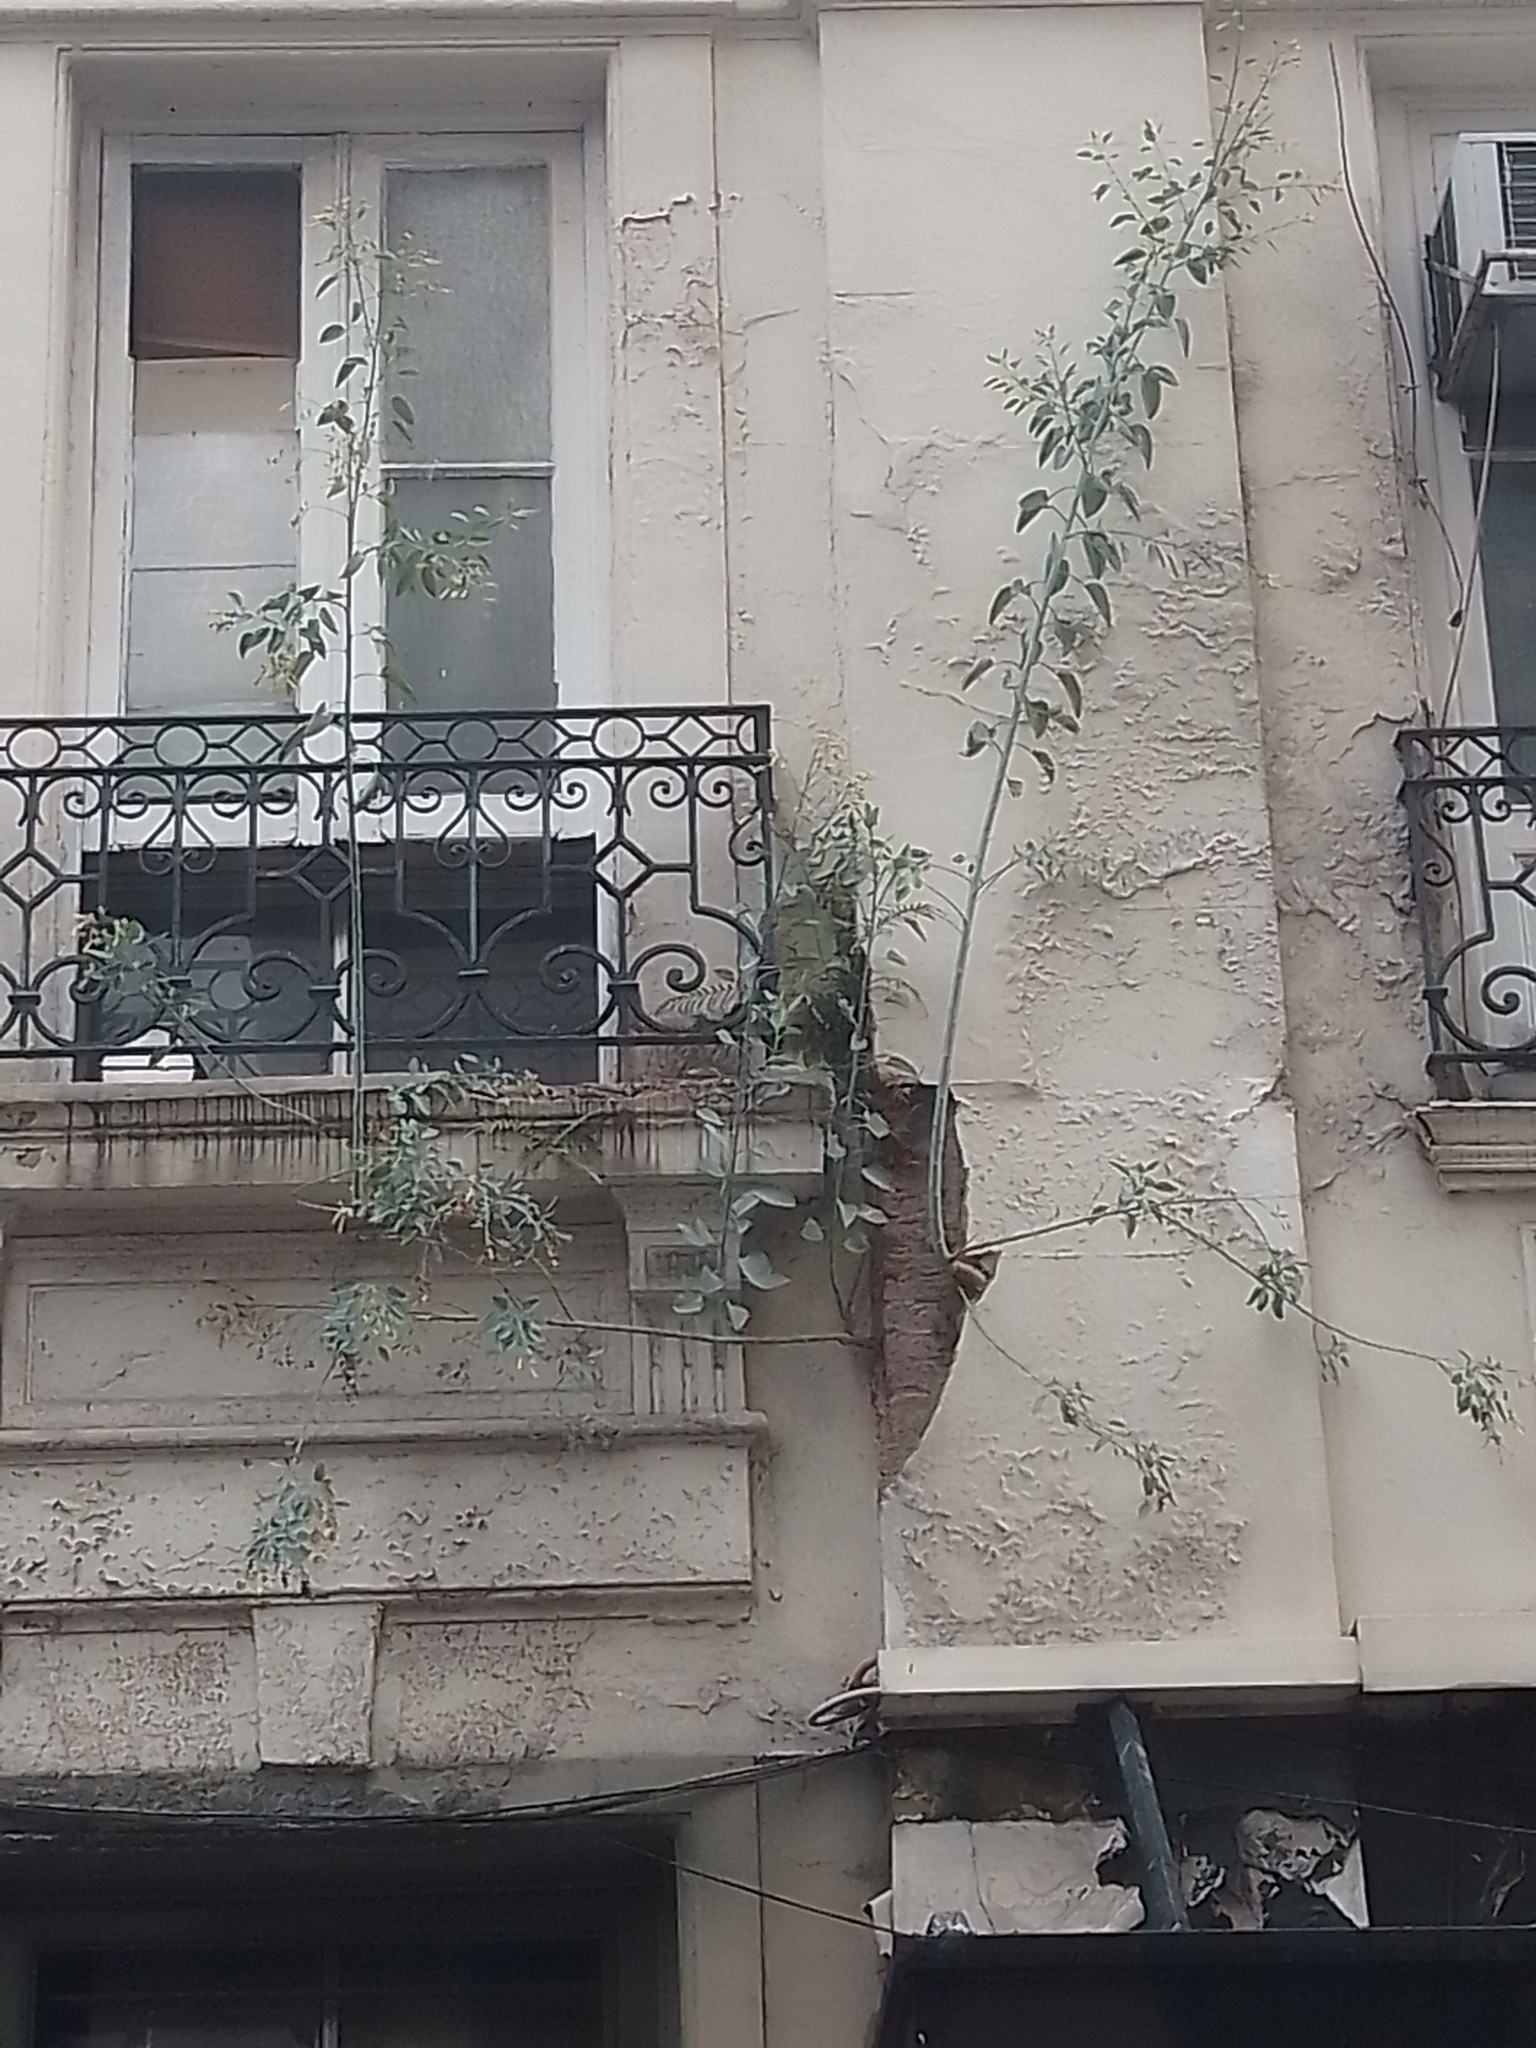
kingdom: Plantae
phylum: Tracheophyta
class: Magnoliopsida
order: Solanales
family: Solanaceae
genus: Nicotiana
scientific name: Nicotiana glauca
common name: Tree tobacco
